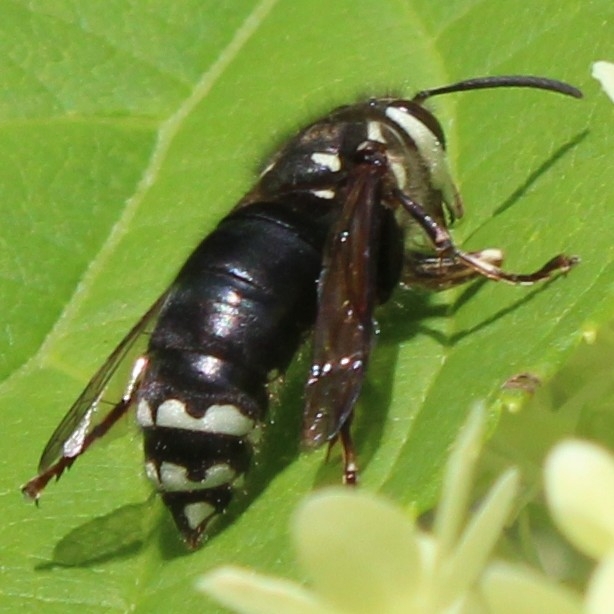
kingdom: Animalia
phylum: Arthropoda
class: Insecta
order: Hymenoptera
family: Vespidae
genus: Dolichovespula
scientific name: Dolichovespula maculata
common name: Bald-faced hornet
